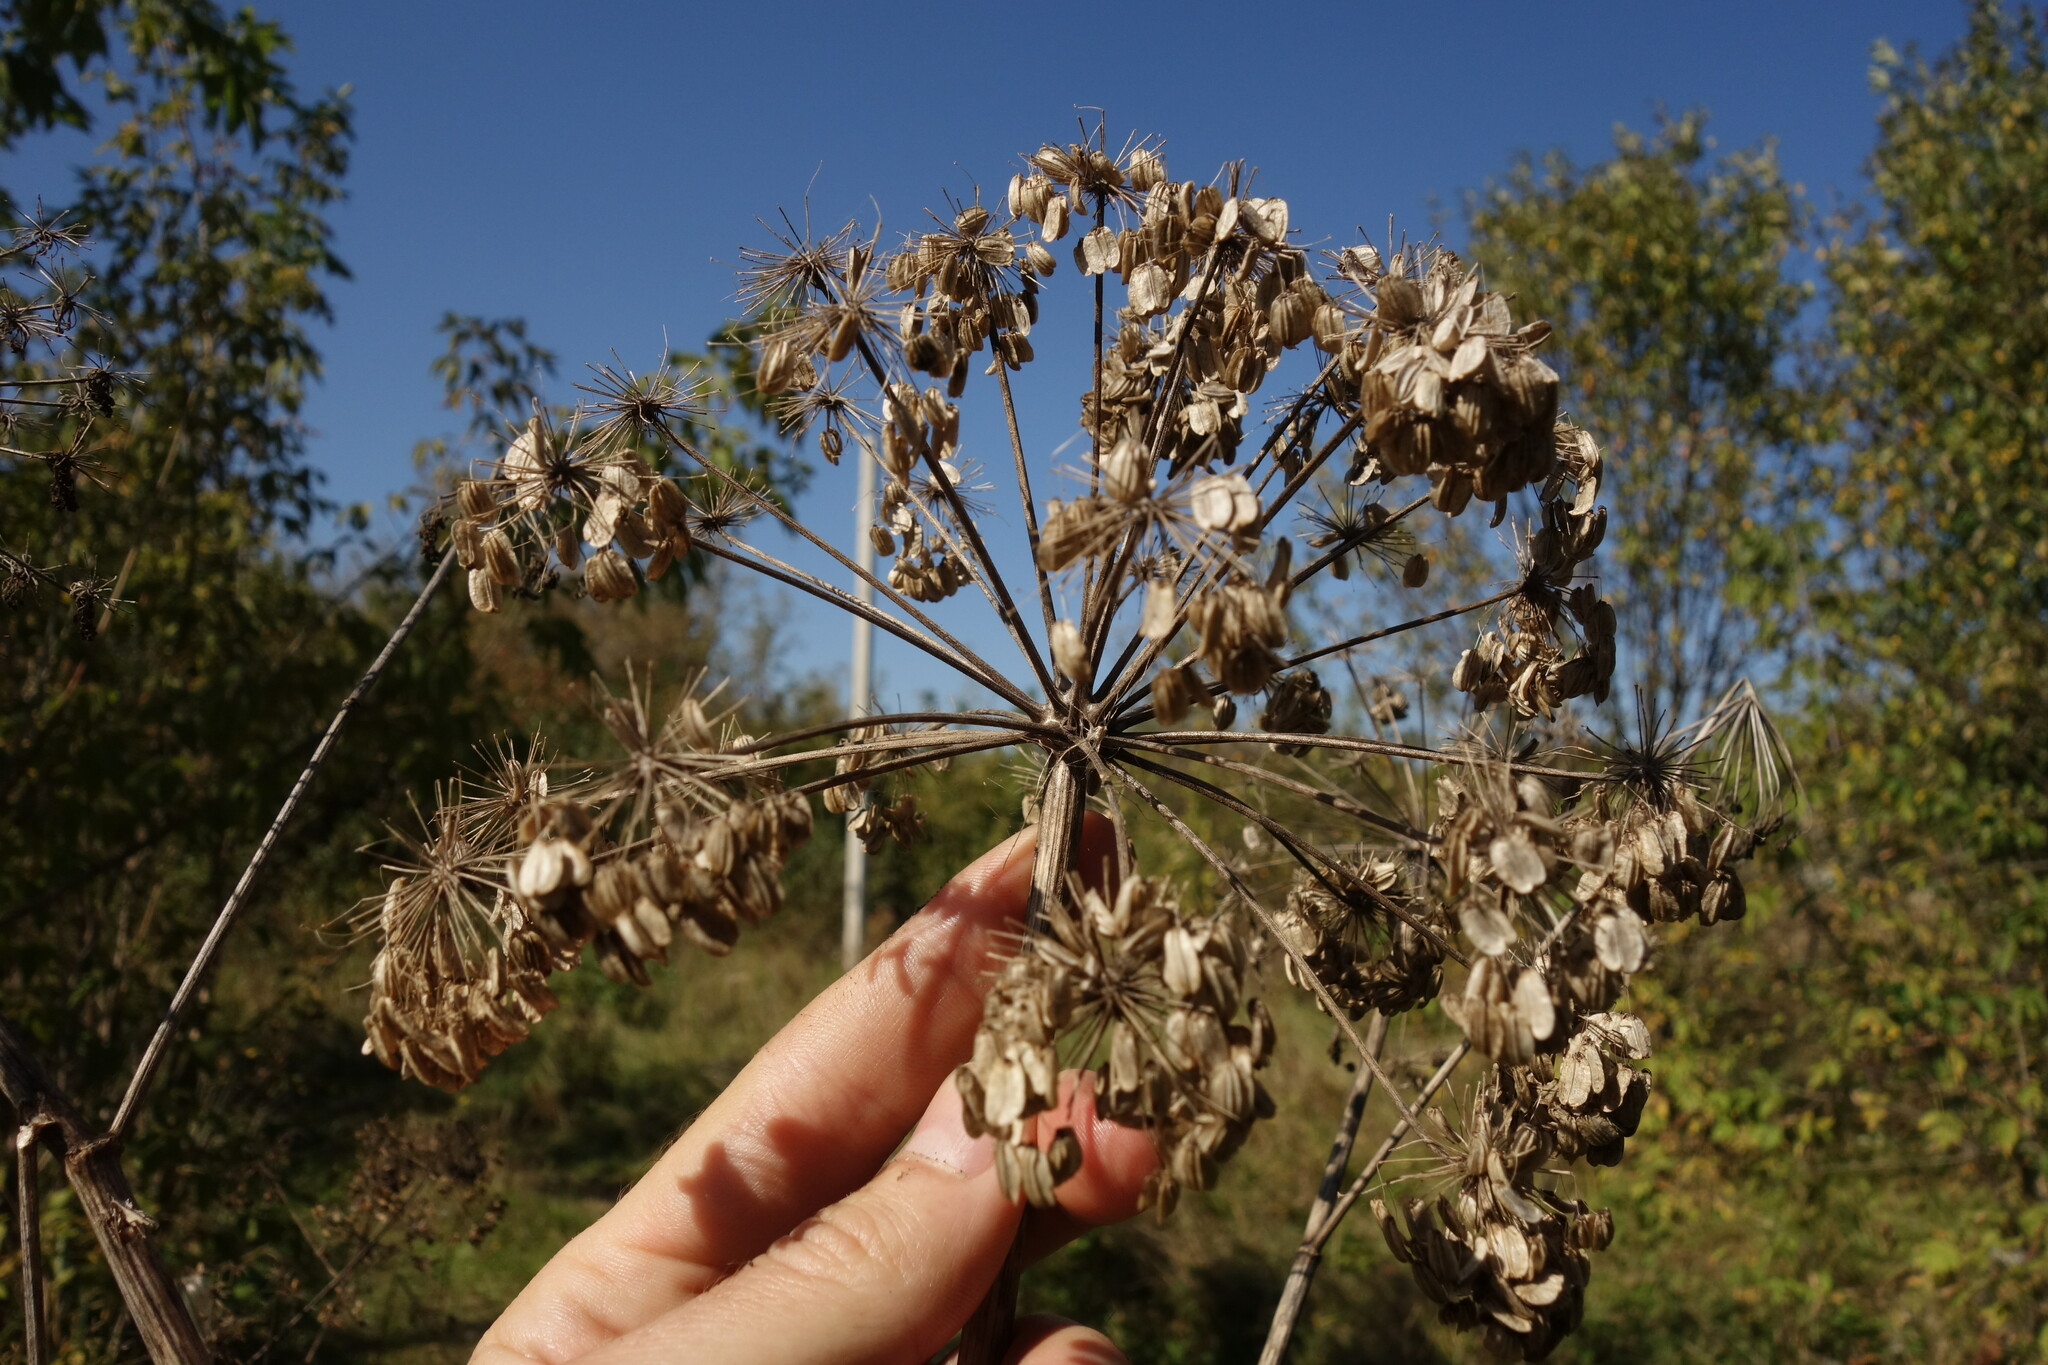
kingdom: Plantae
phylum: Tracheophyta
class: Magnoliopsida
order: Apiales
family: Apiaceae
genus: Angelica
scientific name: Angelica archangelica
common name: Garden angelica
